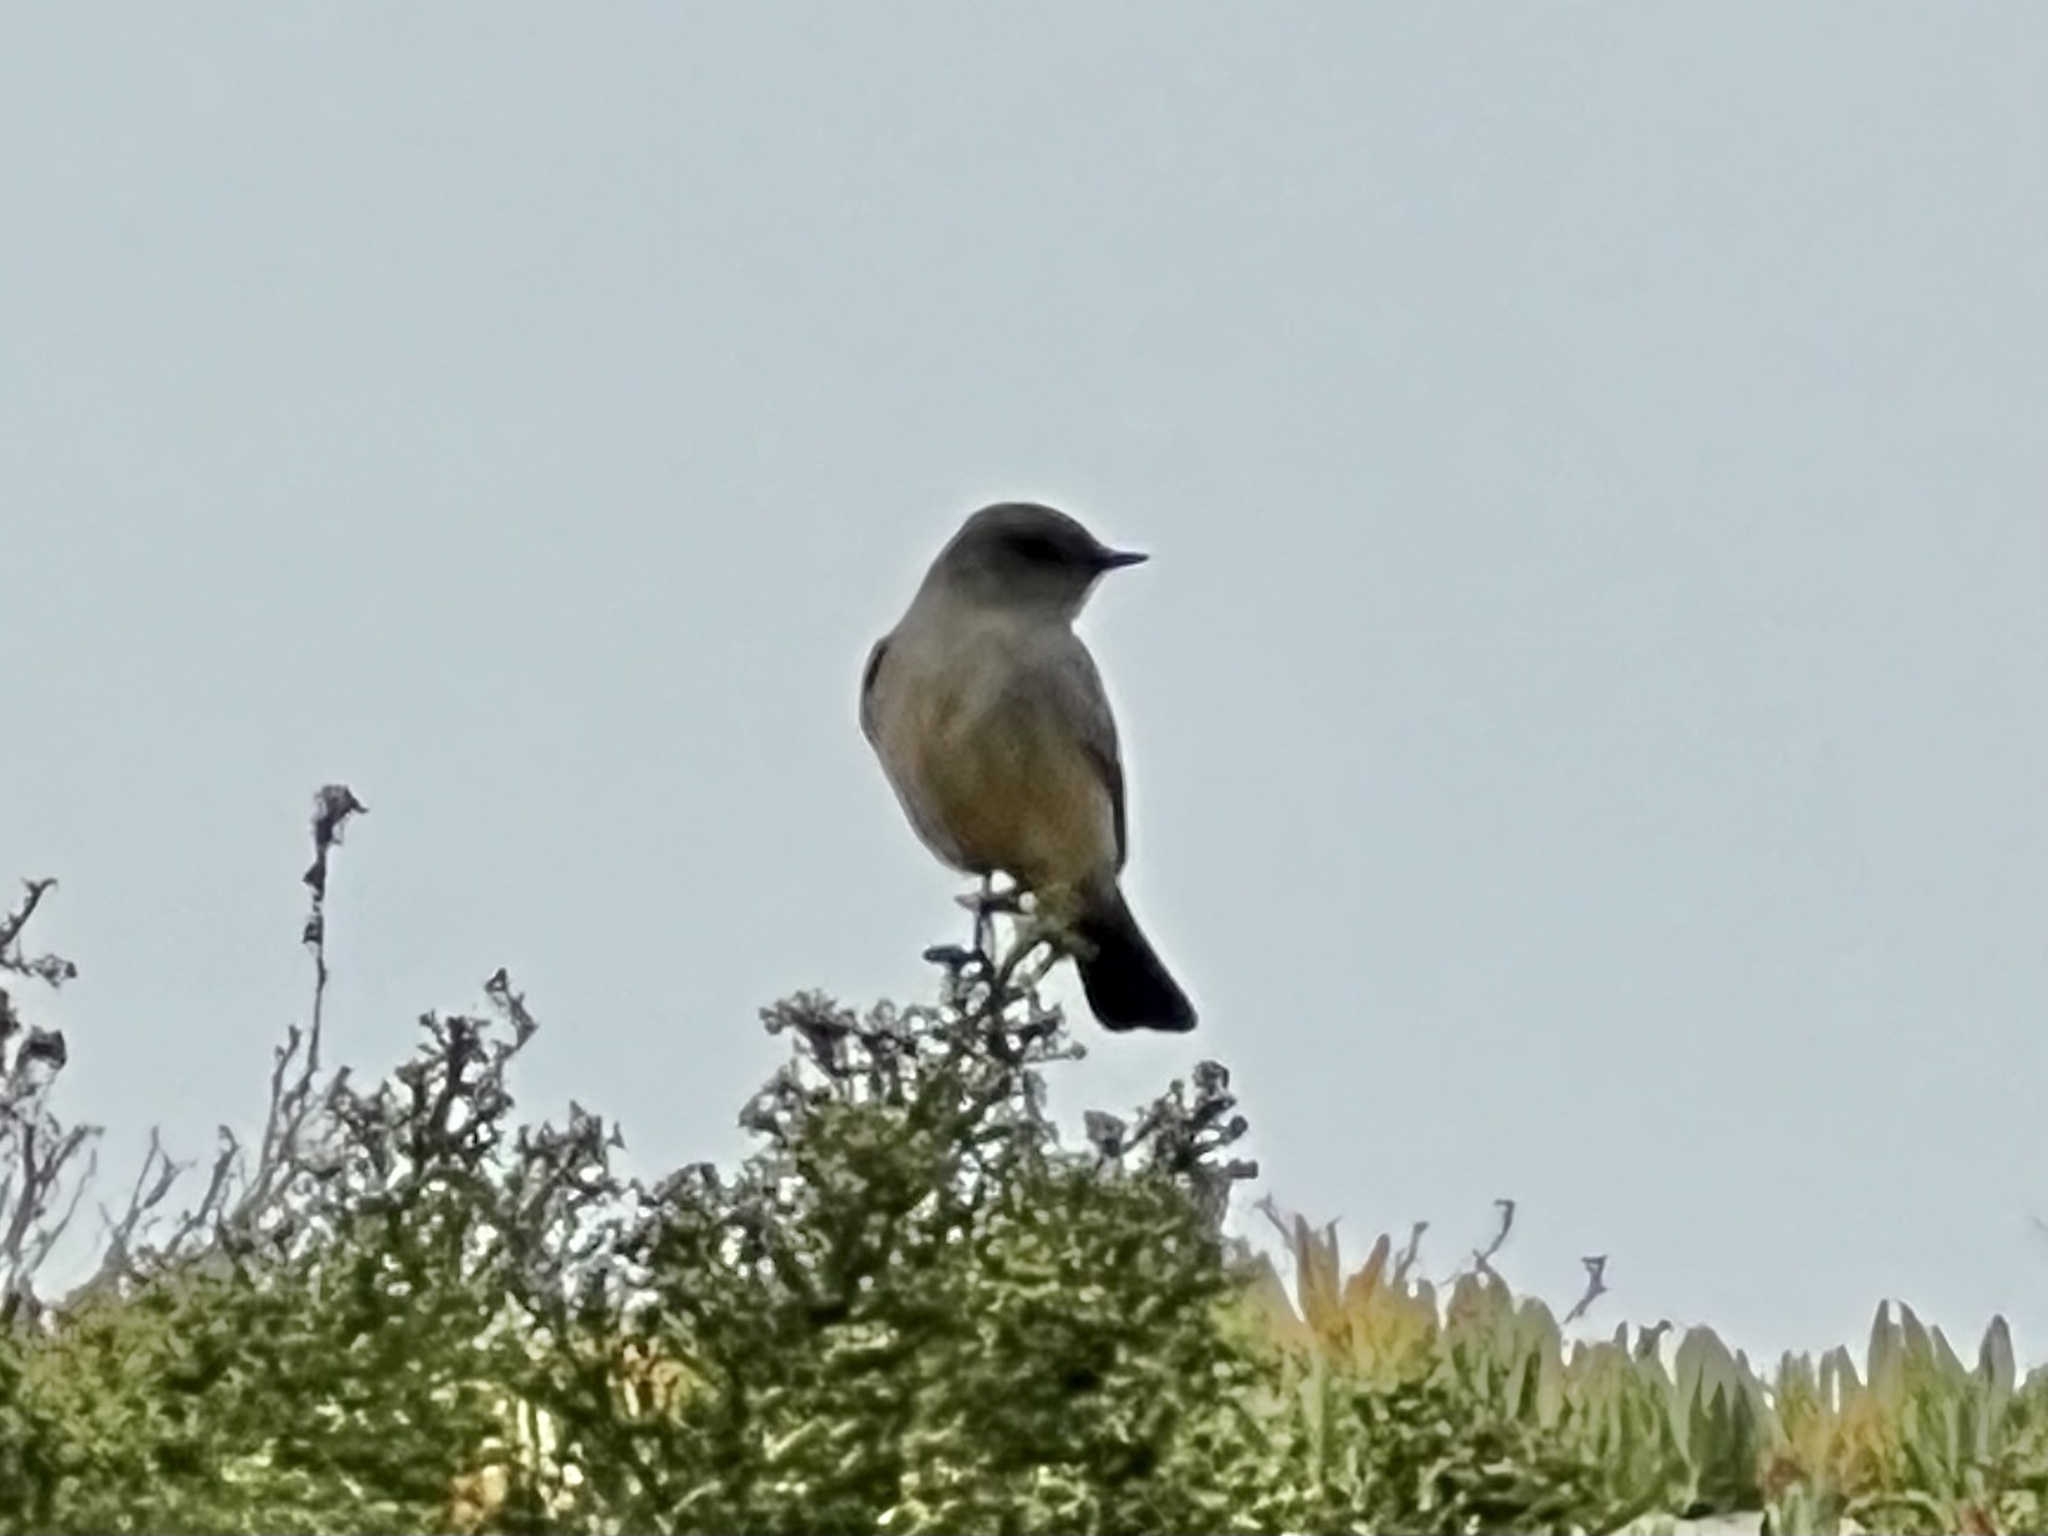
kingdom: Animalia
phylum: Chordata
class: Aves
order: Passeriformes
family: Tyrannidae
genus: Sayornis
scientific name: Sayornis saya
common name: Say's phoebe
